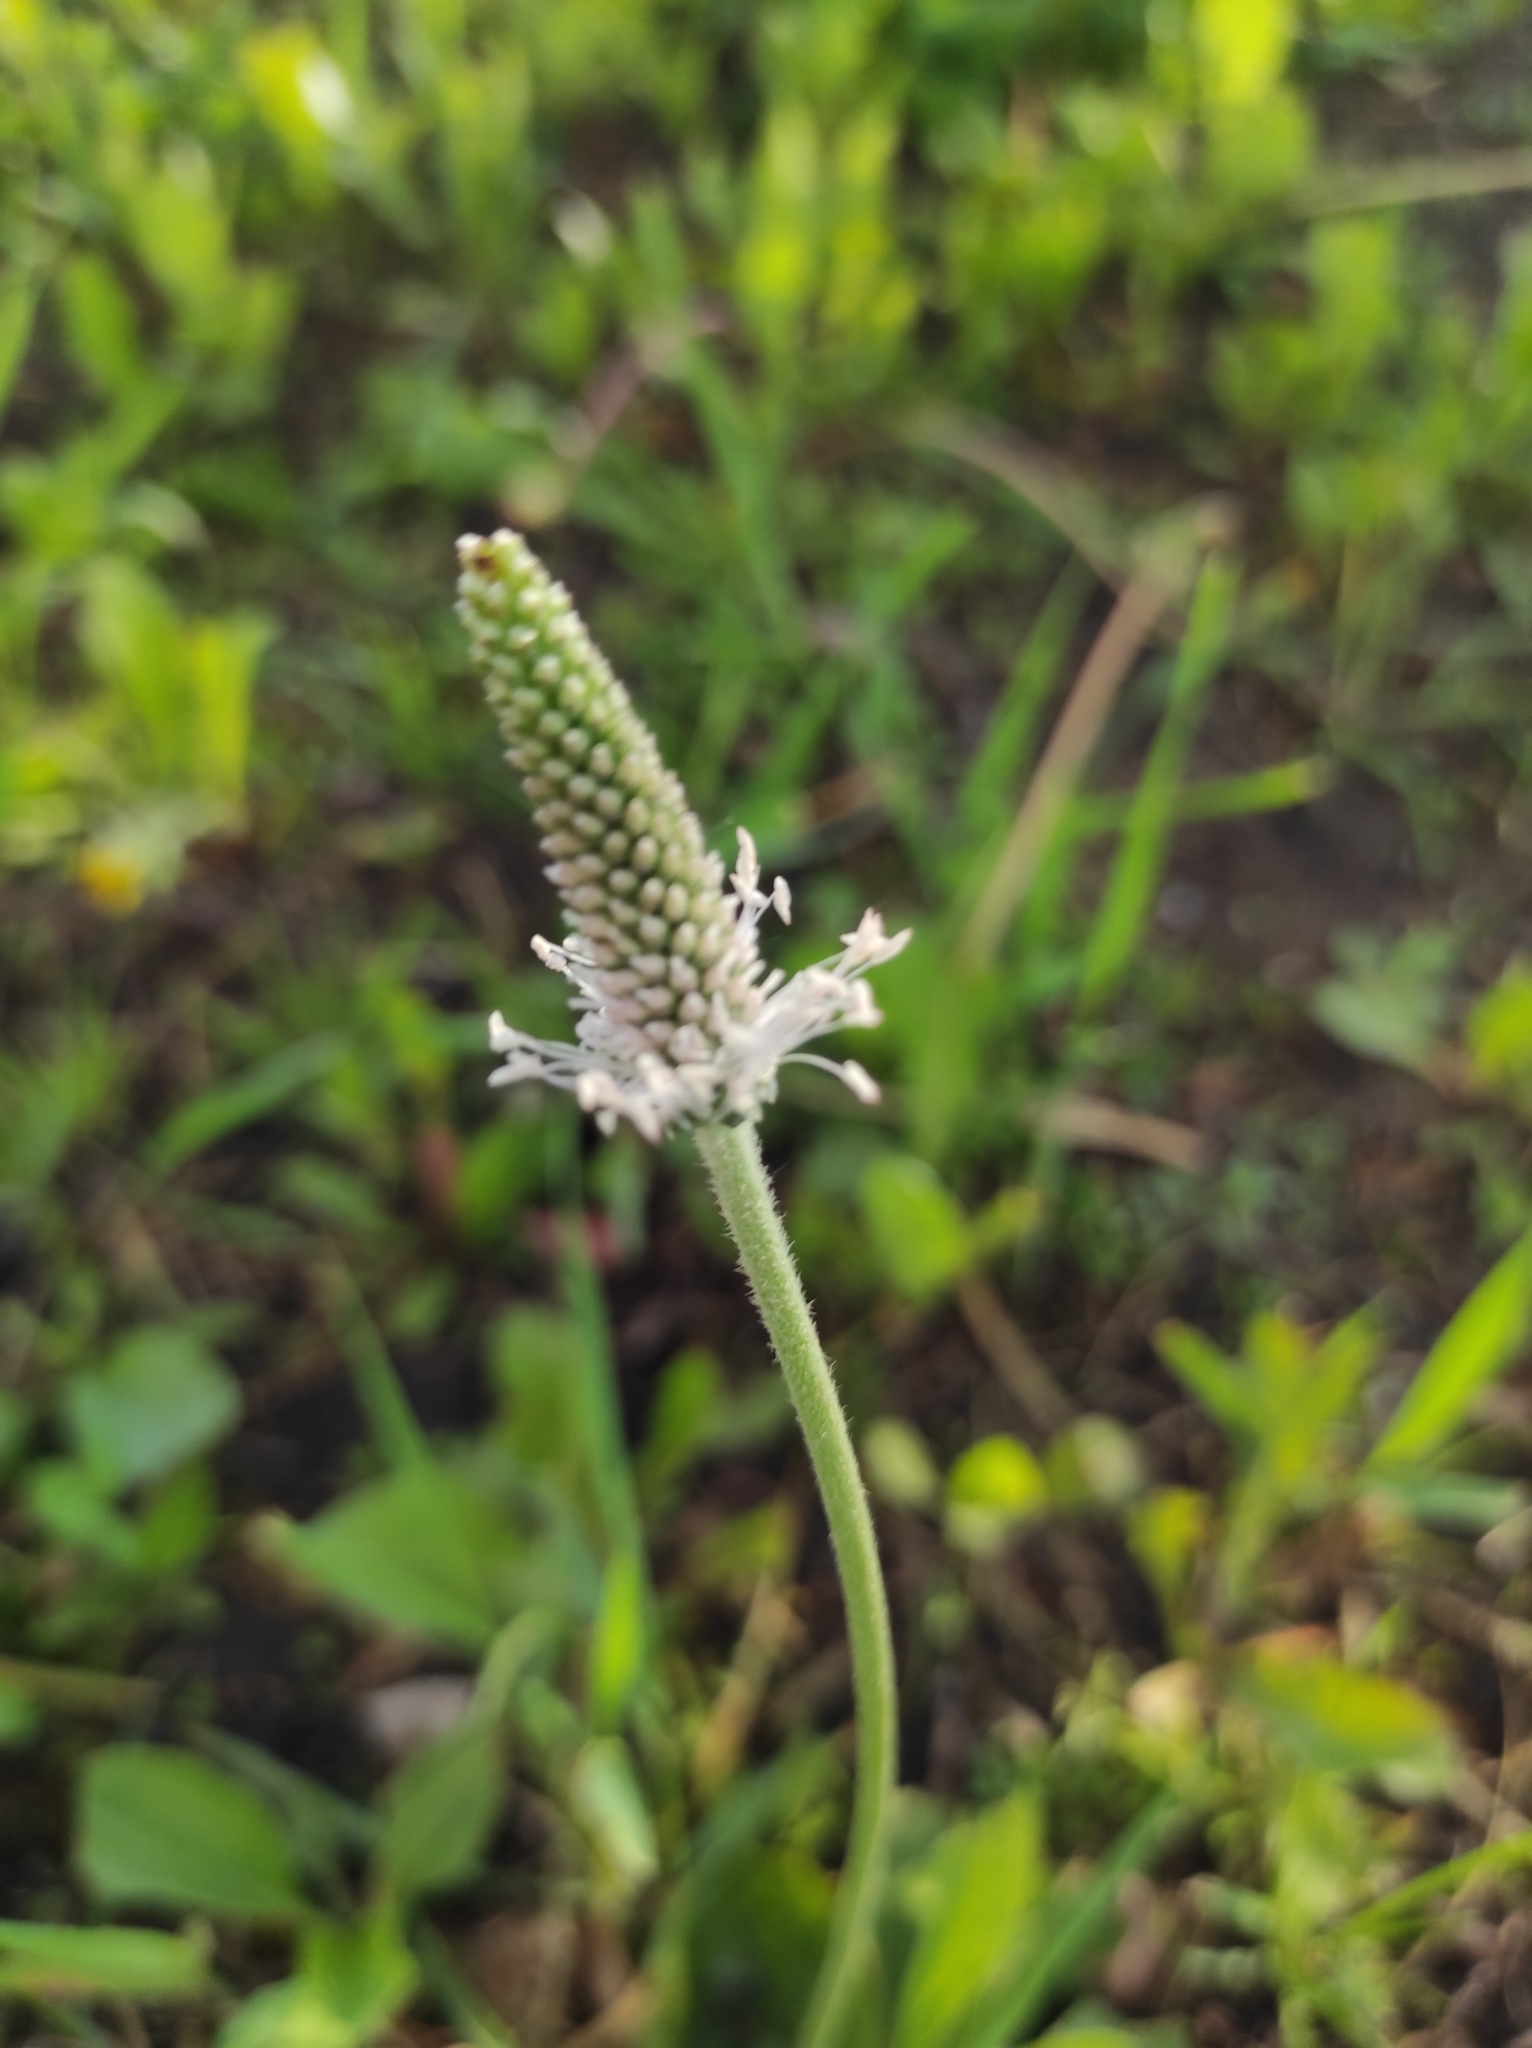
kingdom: Plantae
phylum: Tracheophyta
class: Magnoliopsida
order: Lamiales
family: Plantaginaceae
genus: Plantago
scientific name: Plantago media
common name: Hoary plantain
